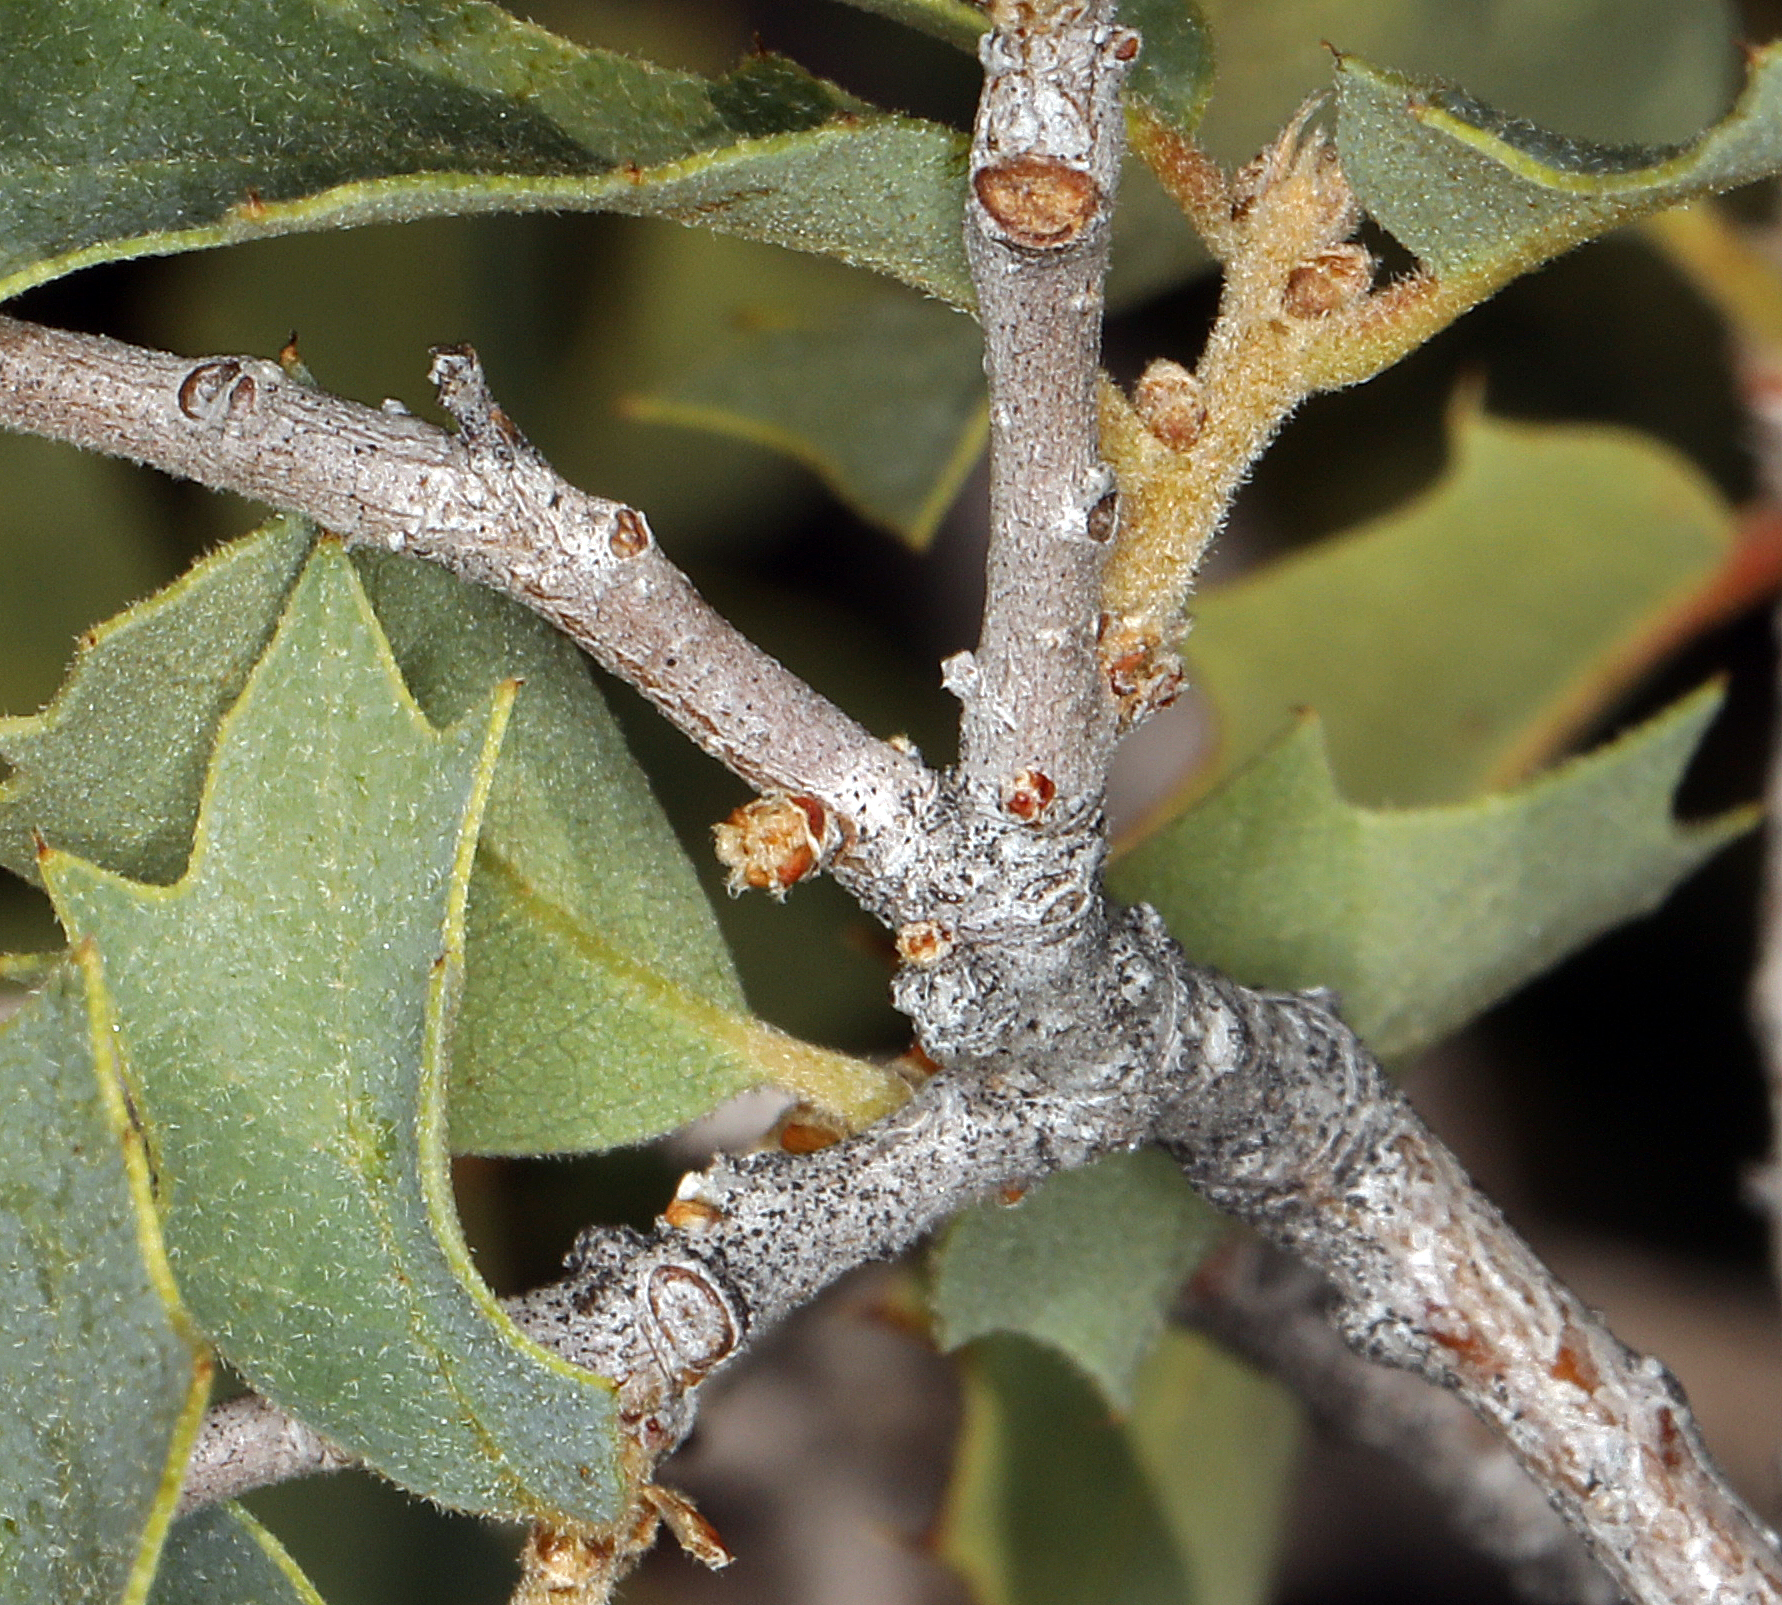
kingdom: Plantae
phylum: Tracheophyta
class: Magnoliopsida
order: Fagales
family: Fagaceae
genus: Quercus
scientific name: Quercus turbinella
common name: Sonoran scrub oak
